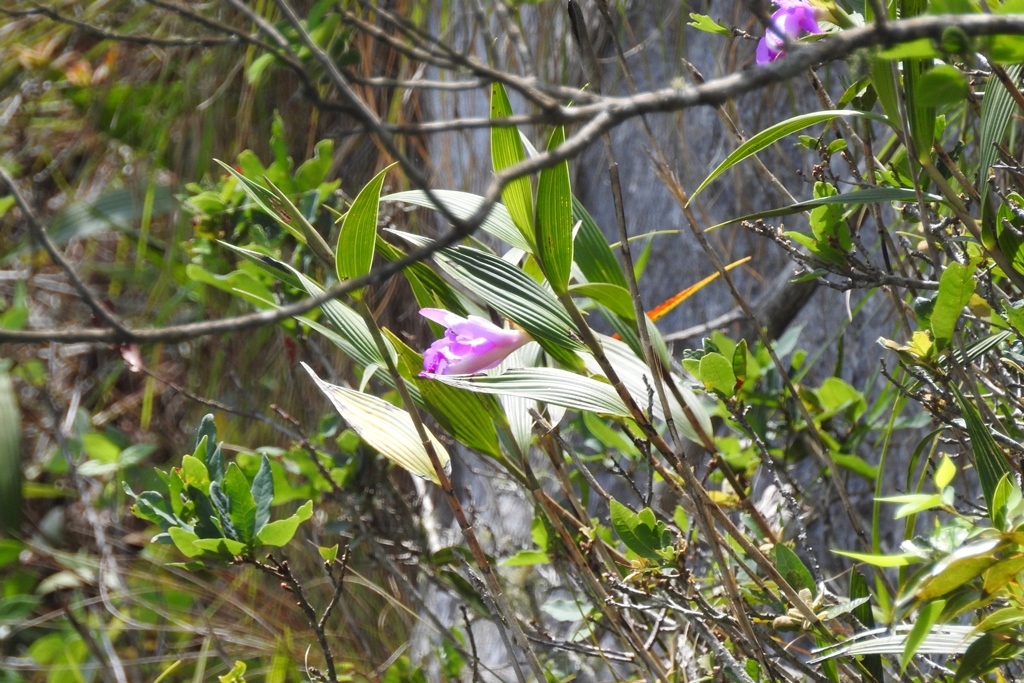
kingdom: Plantae
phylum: Tracheophyta
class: Liliopsida
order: Asparagales
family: Orchidaceae
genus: Sobralia
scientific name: Sobralia macrantha
